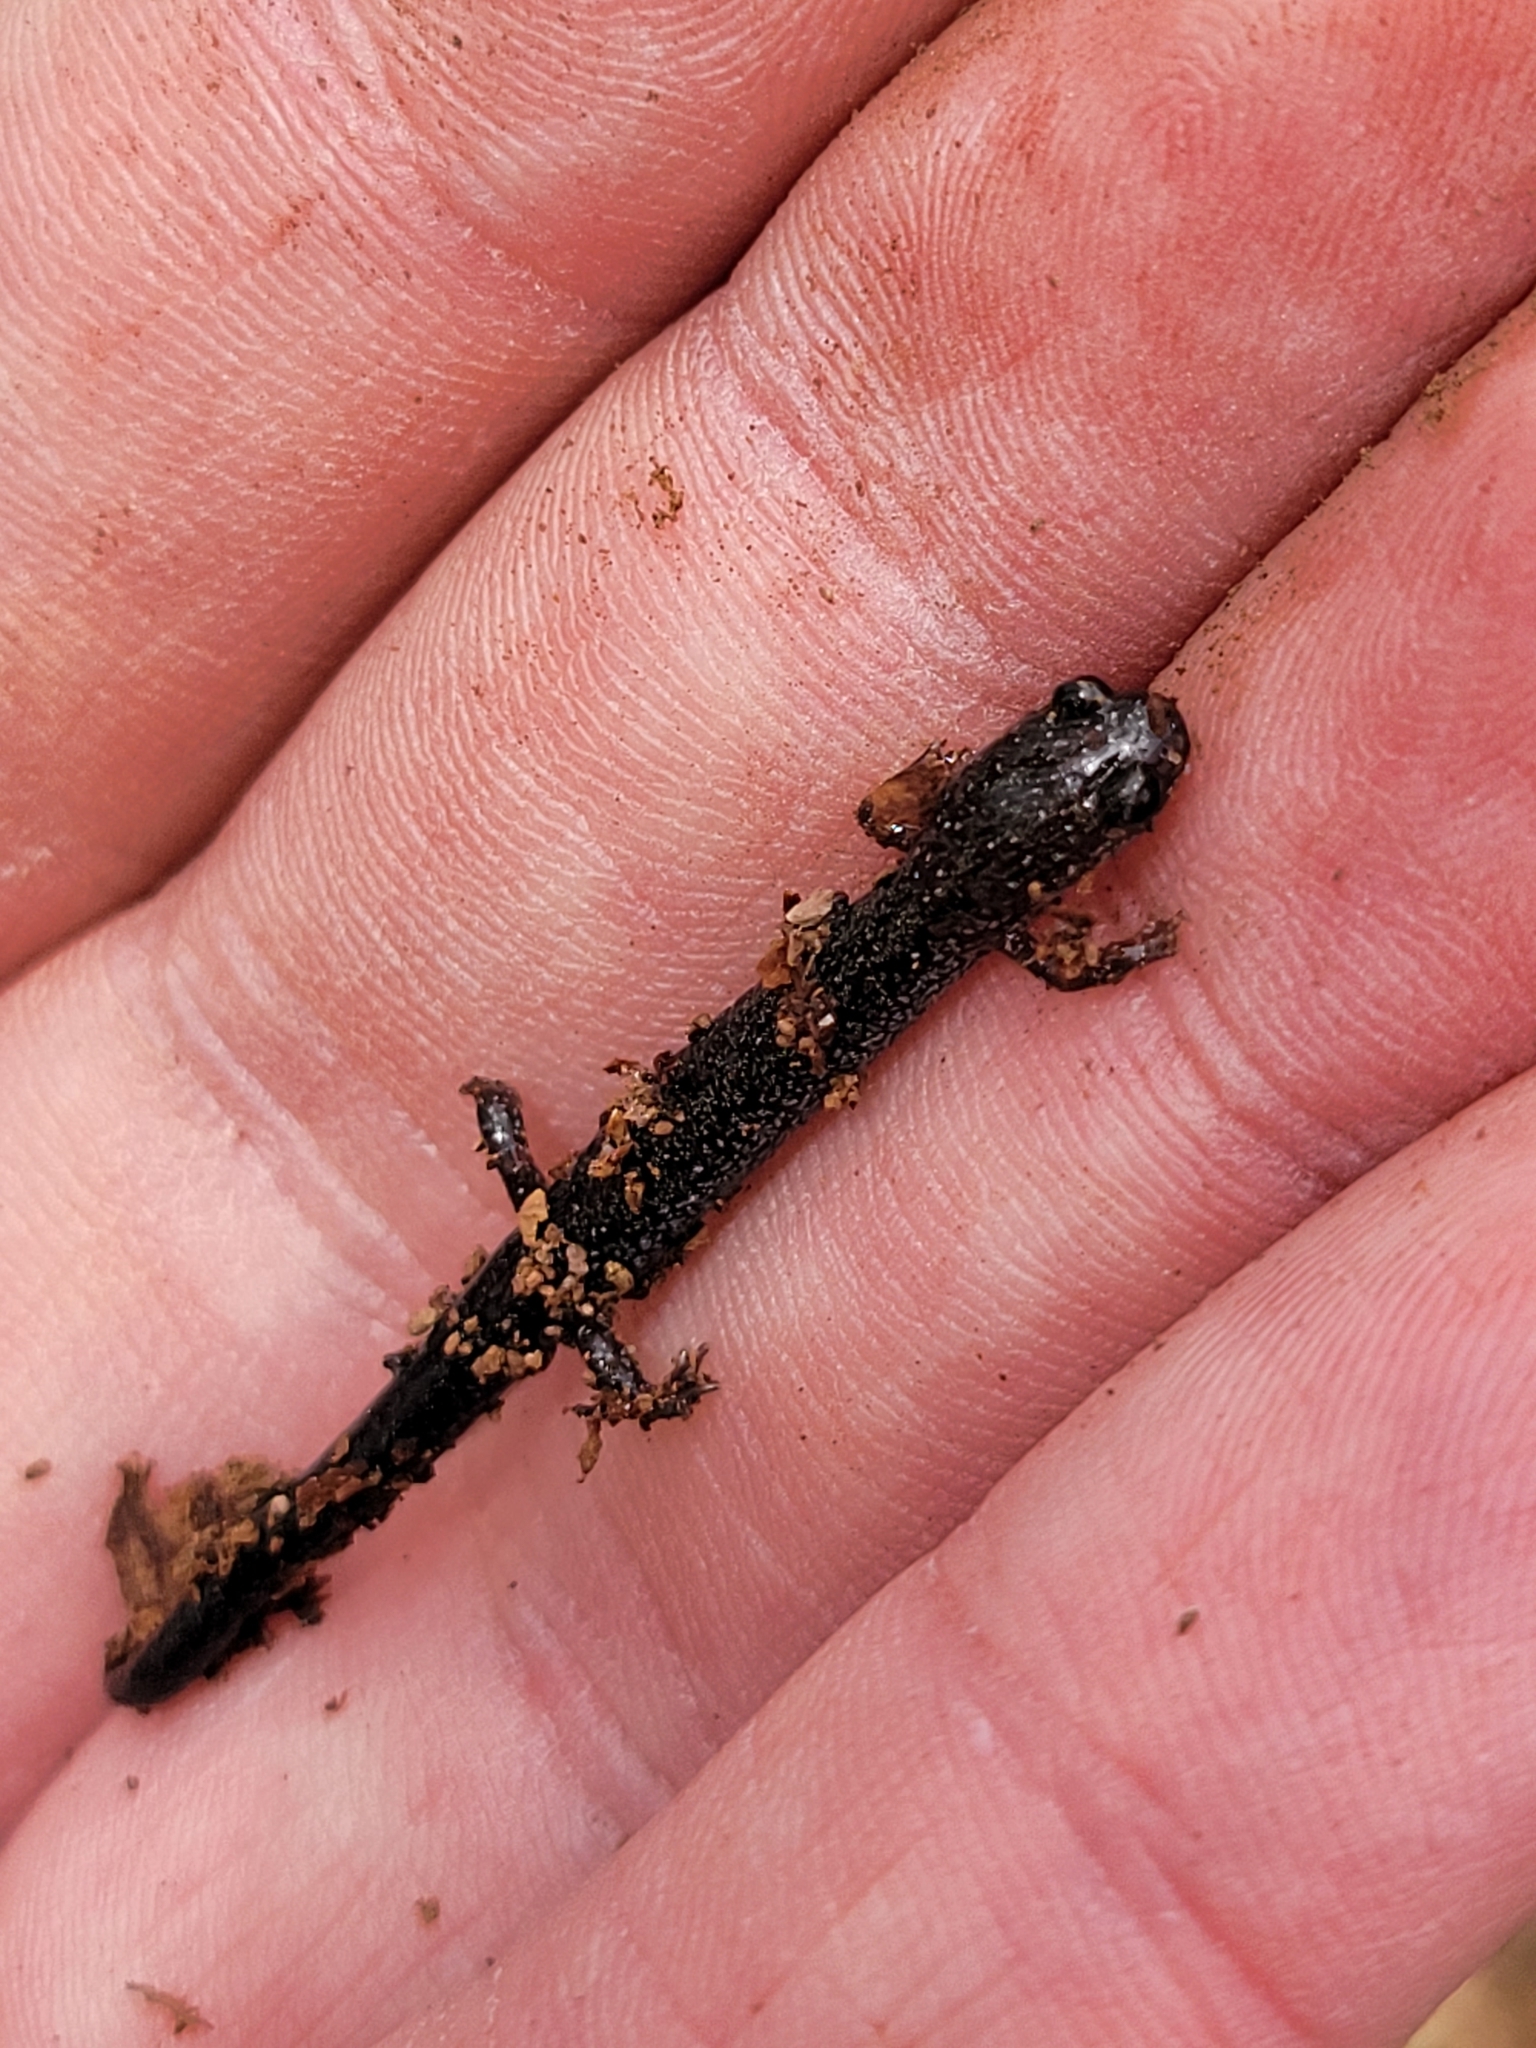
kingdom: Animalia
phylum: Chordata
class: Amphibia
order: Caudata
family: Plethodontidae
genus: Plethodon
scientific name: Plethodon cinereus
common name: Redback salamander
